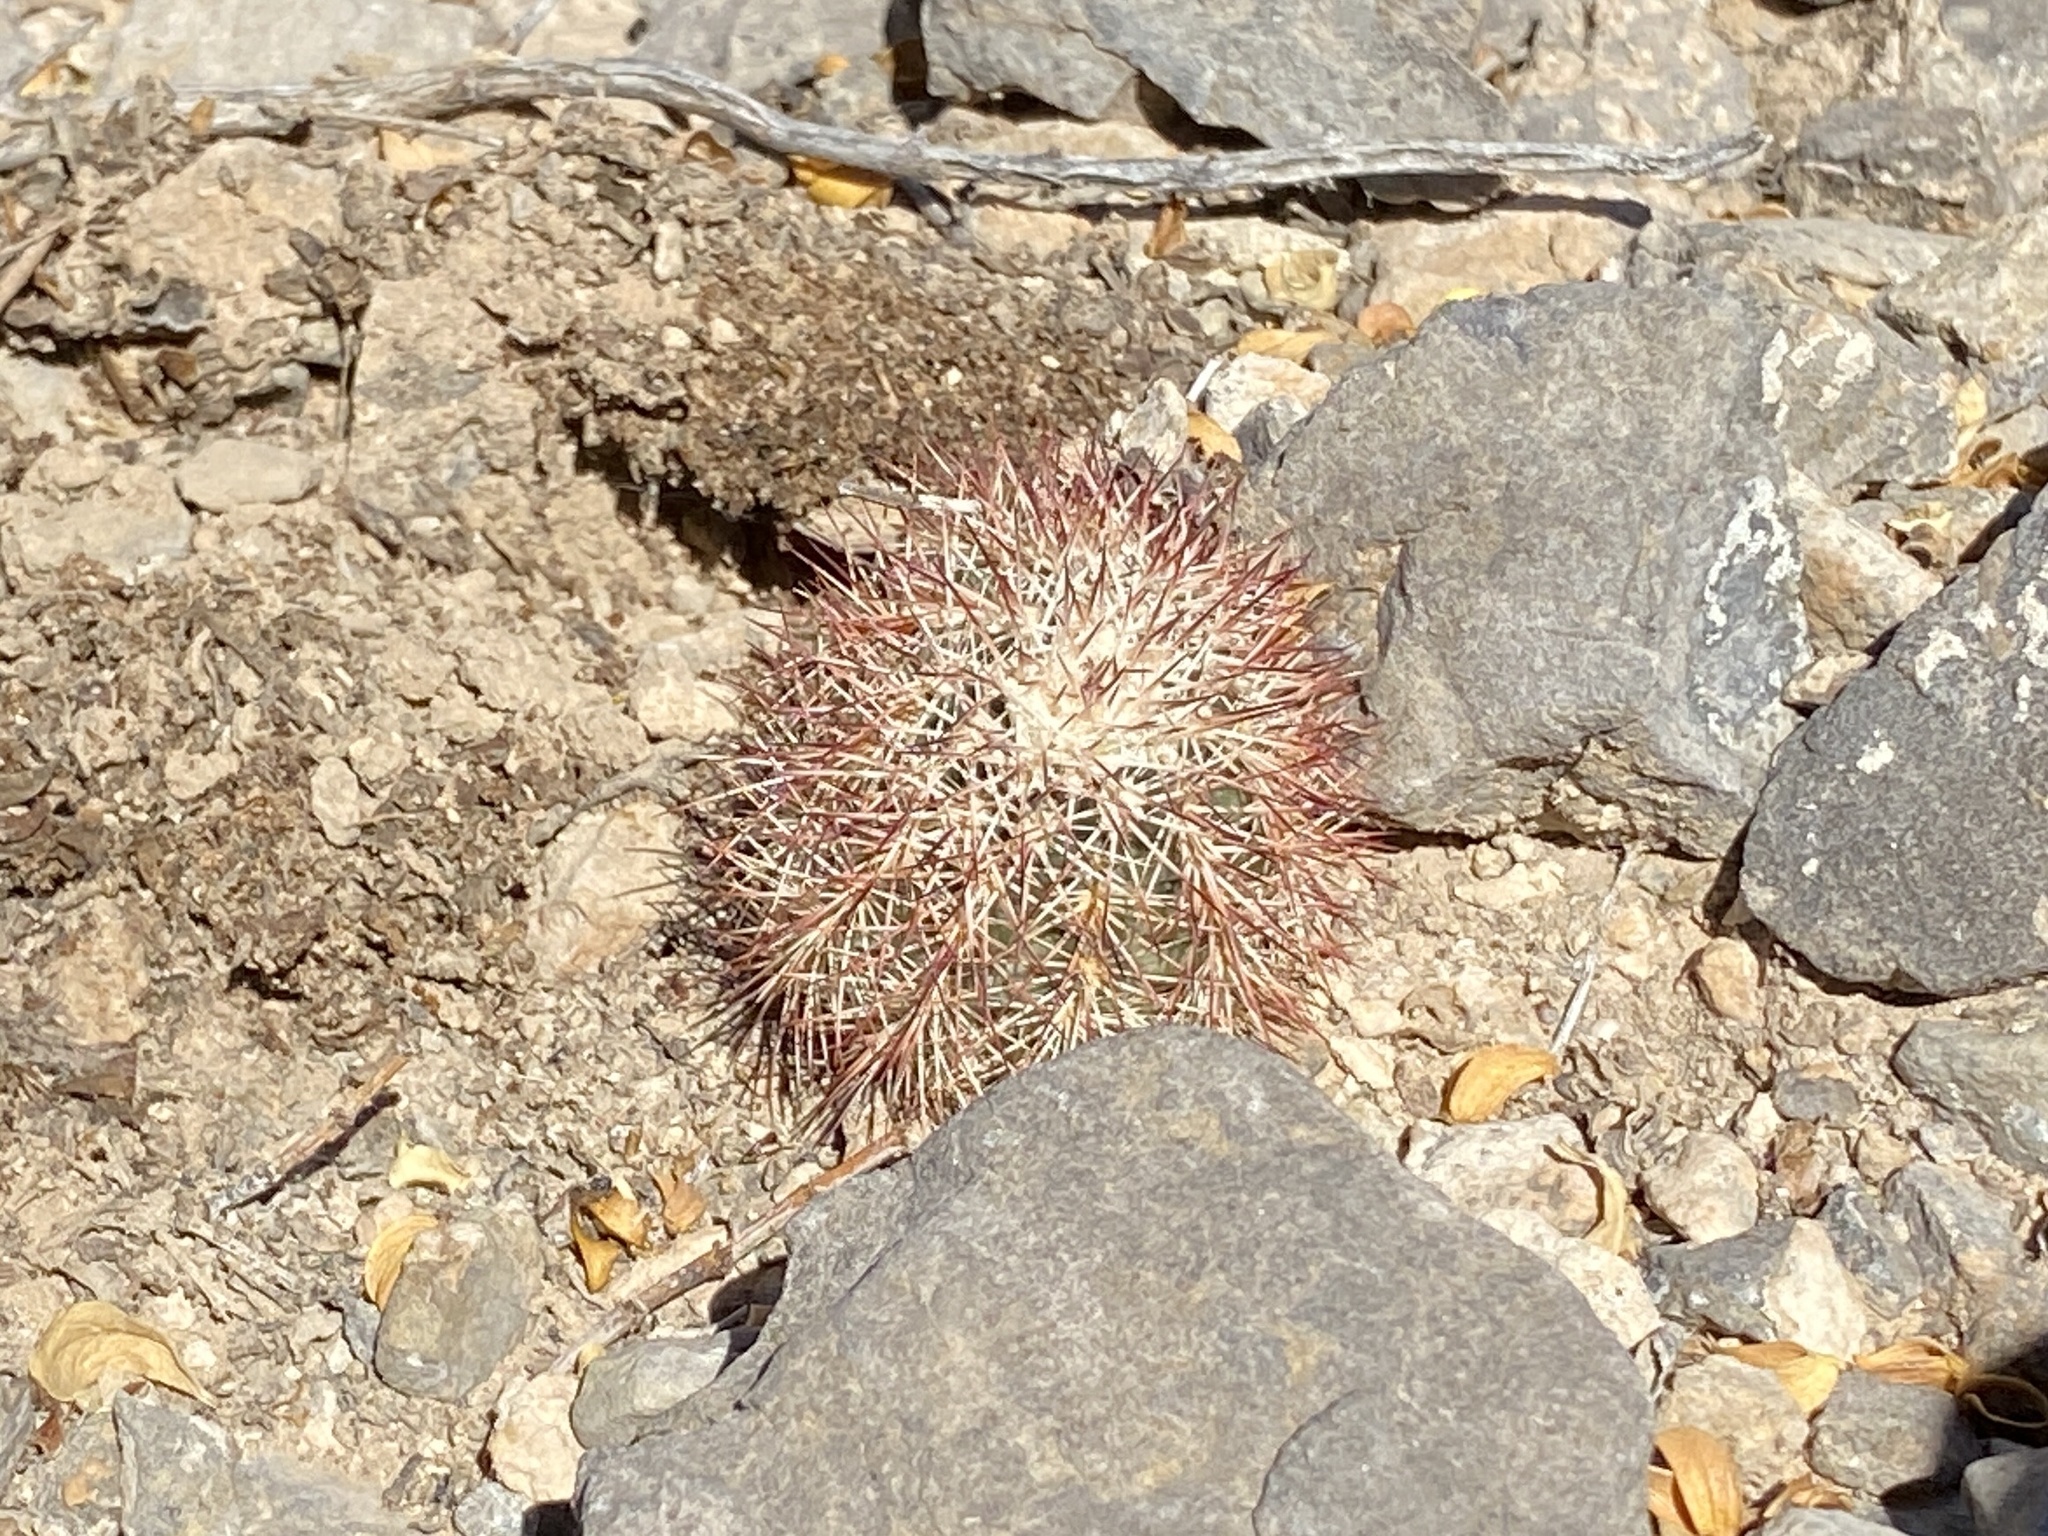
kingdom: Plantae
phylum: Tracheophyta
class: Magnoliopsida
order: Caryophyllales
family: Cactaceae
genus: Echinocereus
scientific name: Echinocereus dasyacanthus
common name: Spiny hedgehog cactus
